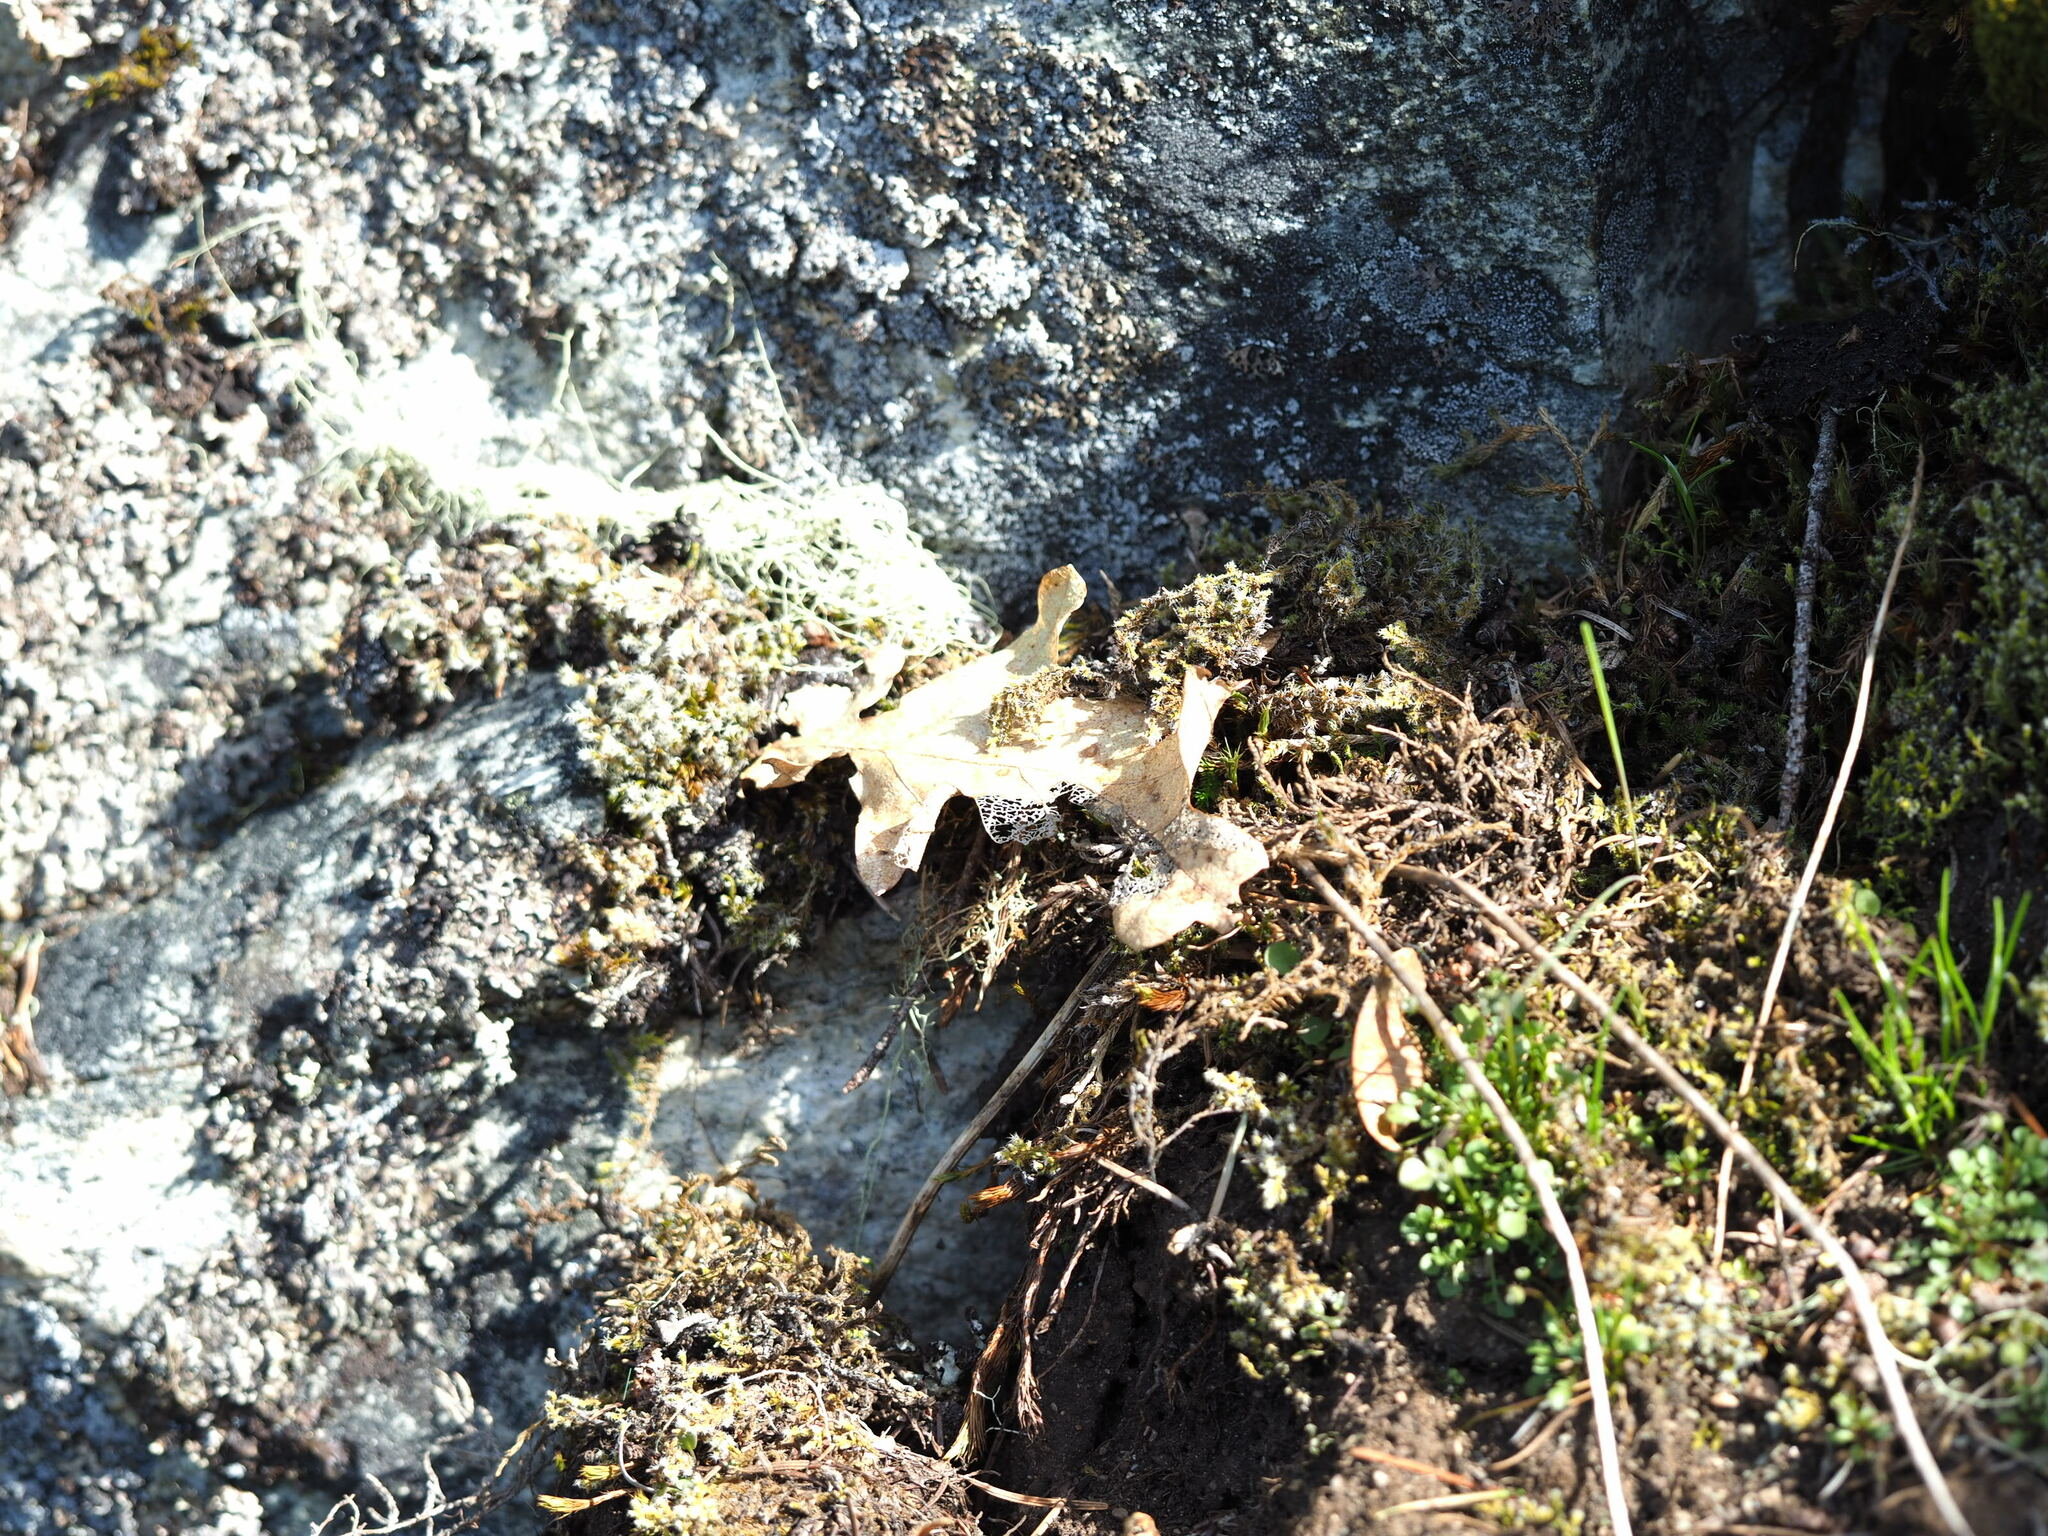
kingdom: Plantae
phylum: Tracheophyta
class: Magnoliopsida
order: Fagales
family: Fagaceae
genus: Quercus
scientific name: Quercus garryana
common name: Garry oak
